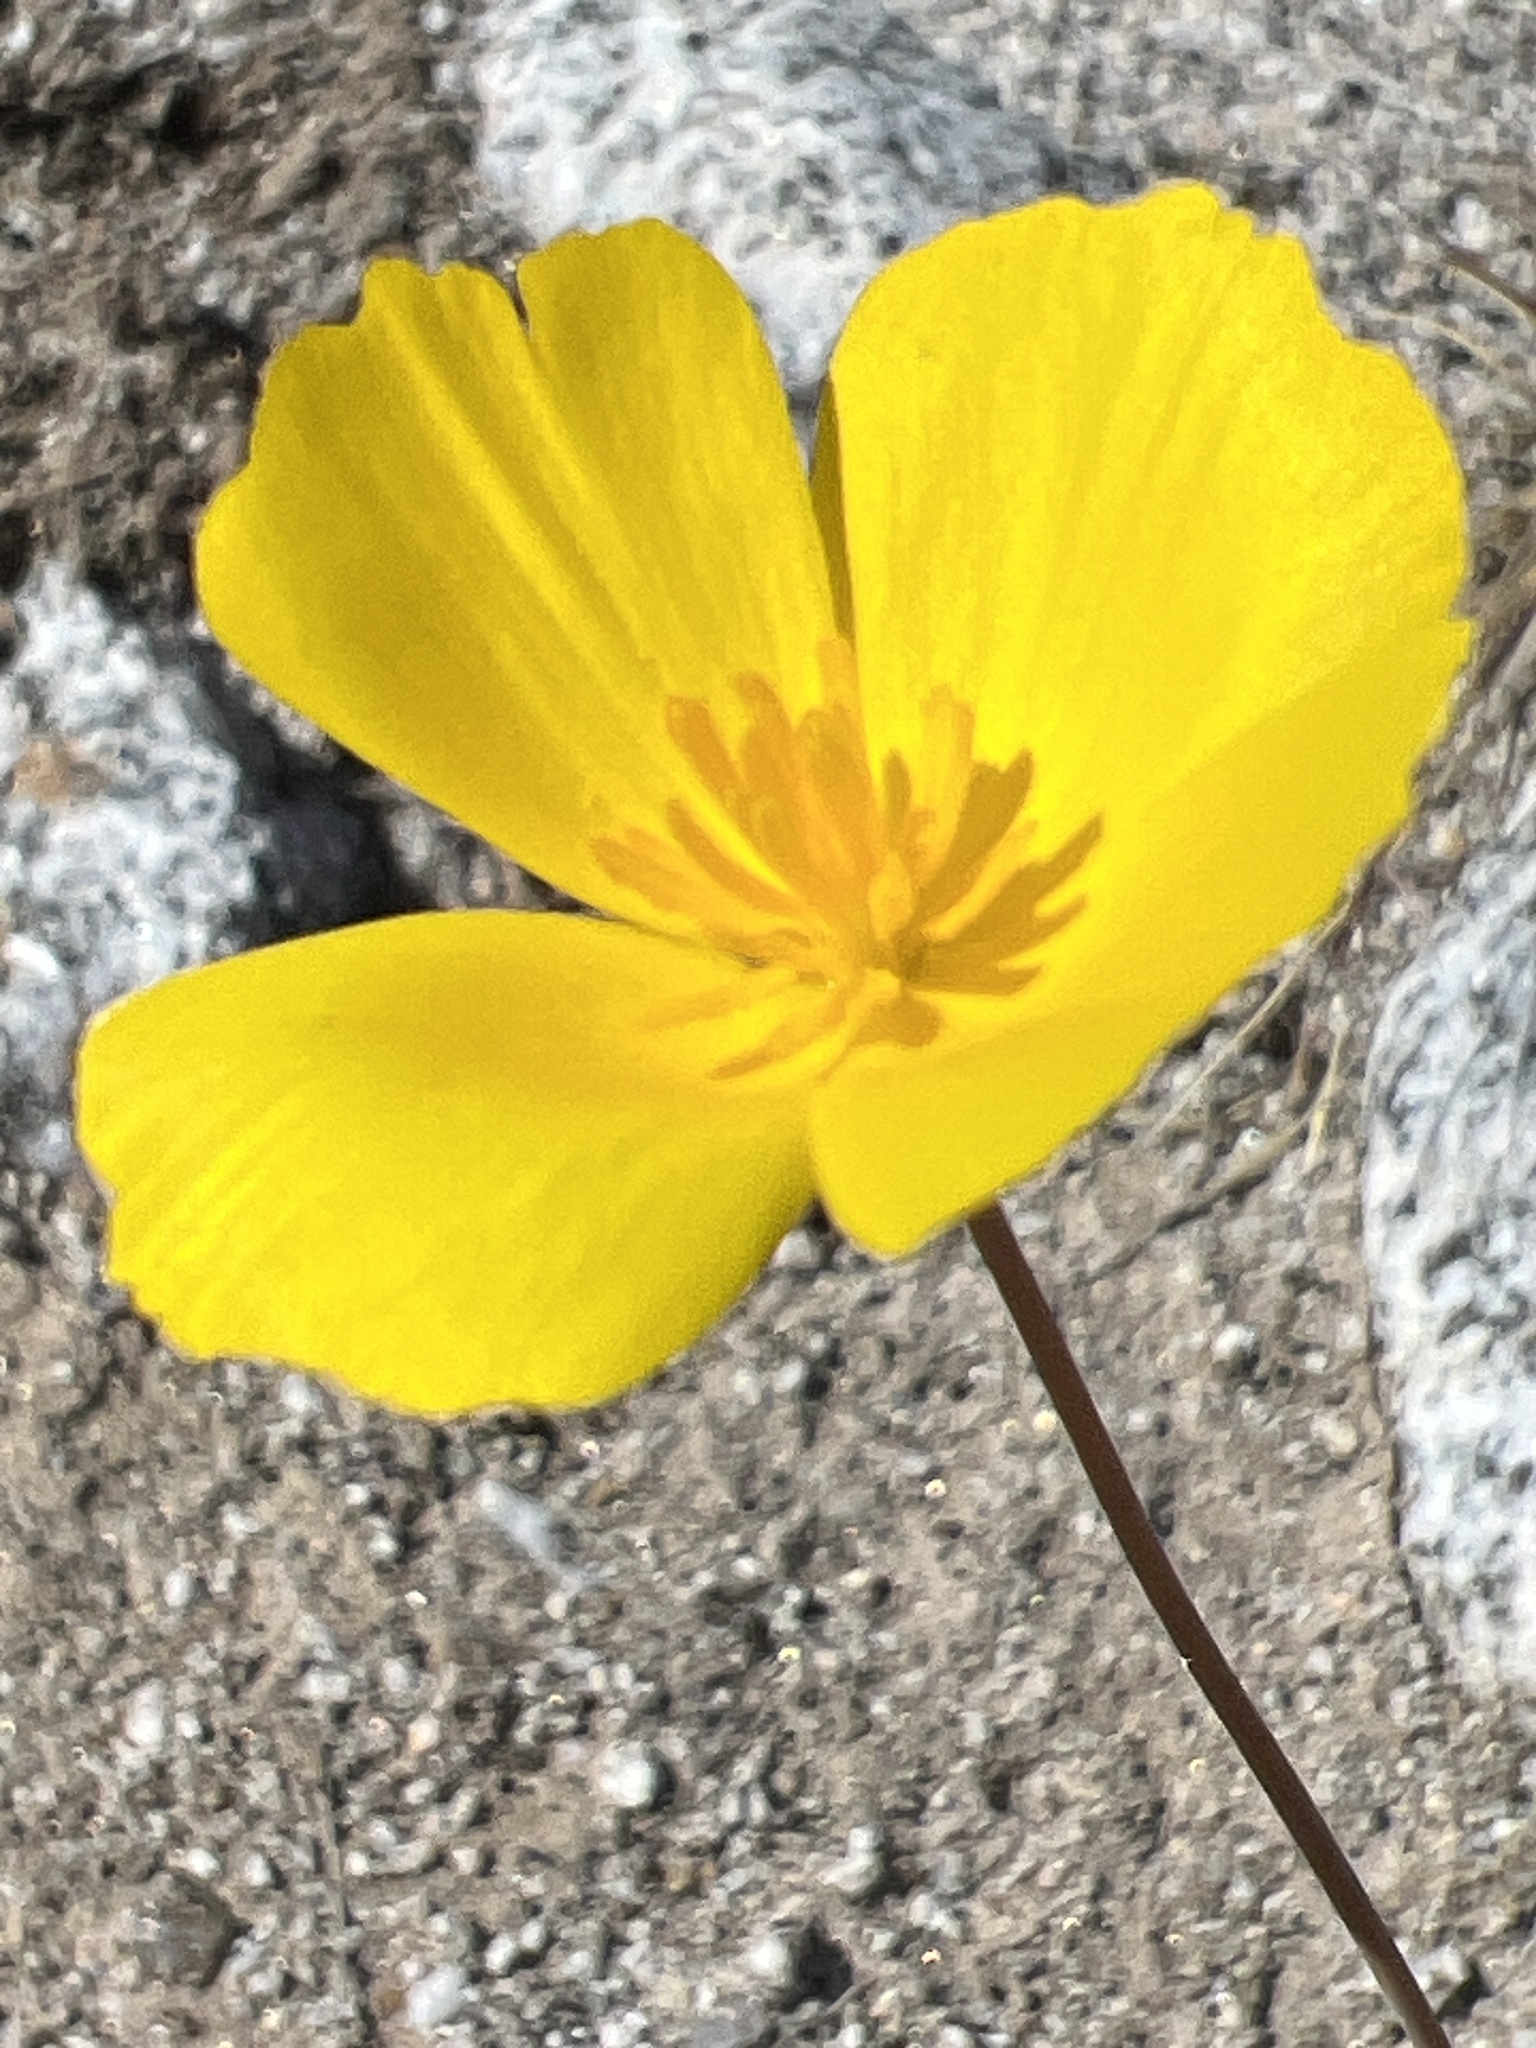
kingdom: Plantae
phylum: Tracheophyta
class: Magnoliopsida
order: Ranunculales
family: Papaveraceae
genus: Eschscholzia
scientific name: Eschscholzia parishii
